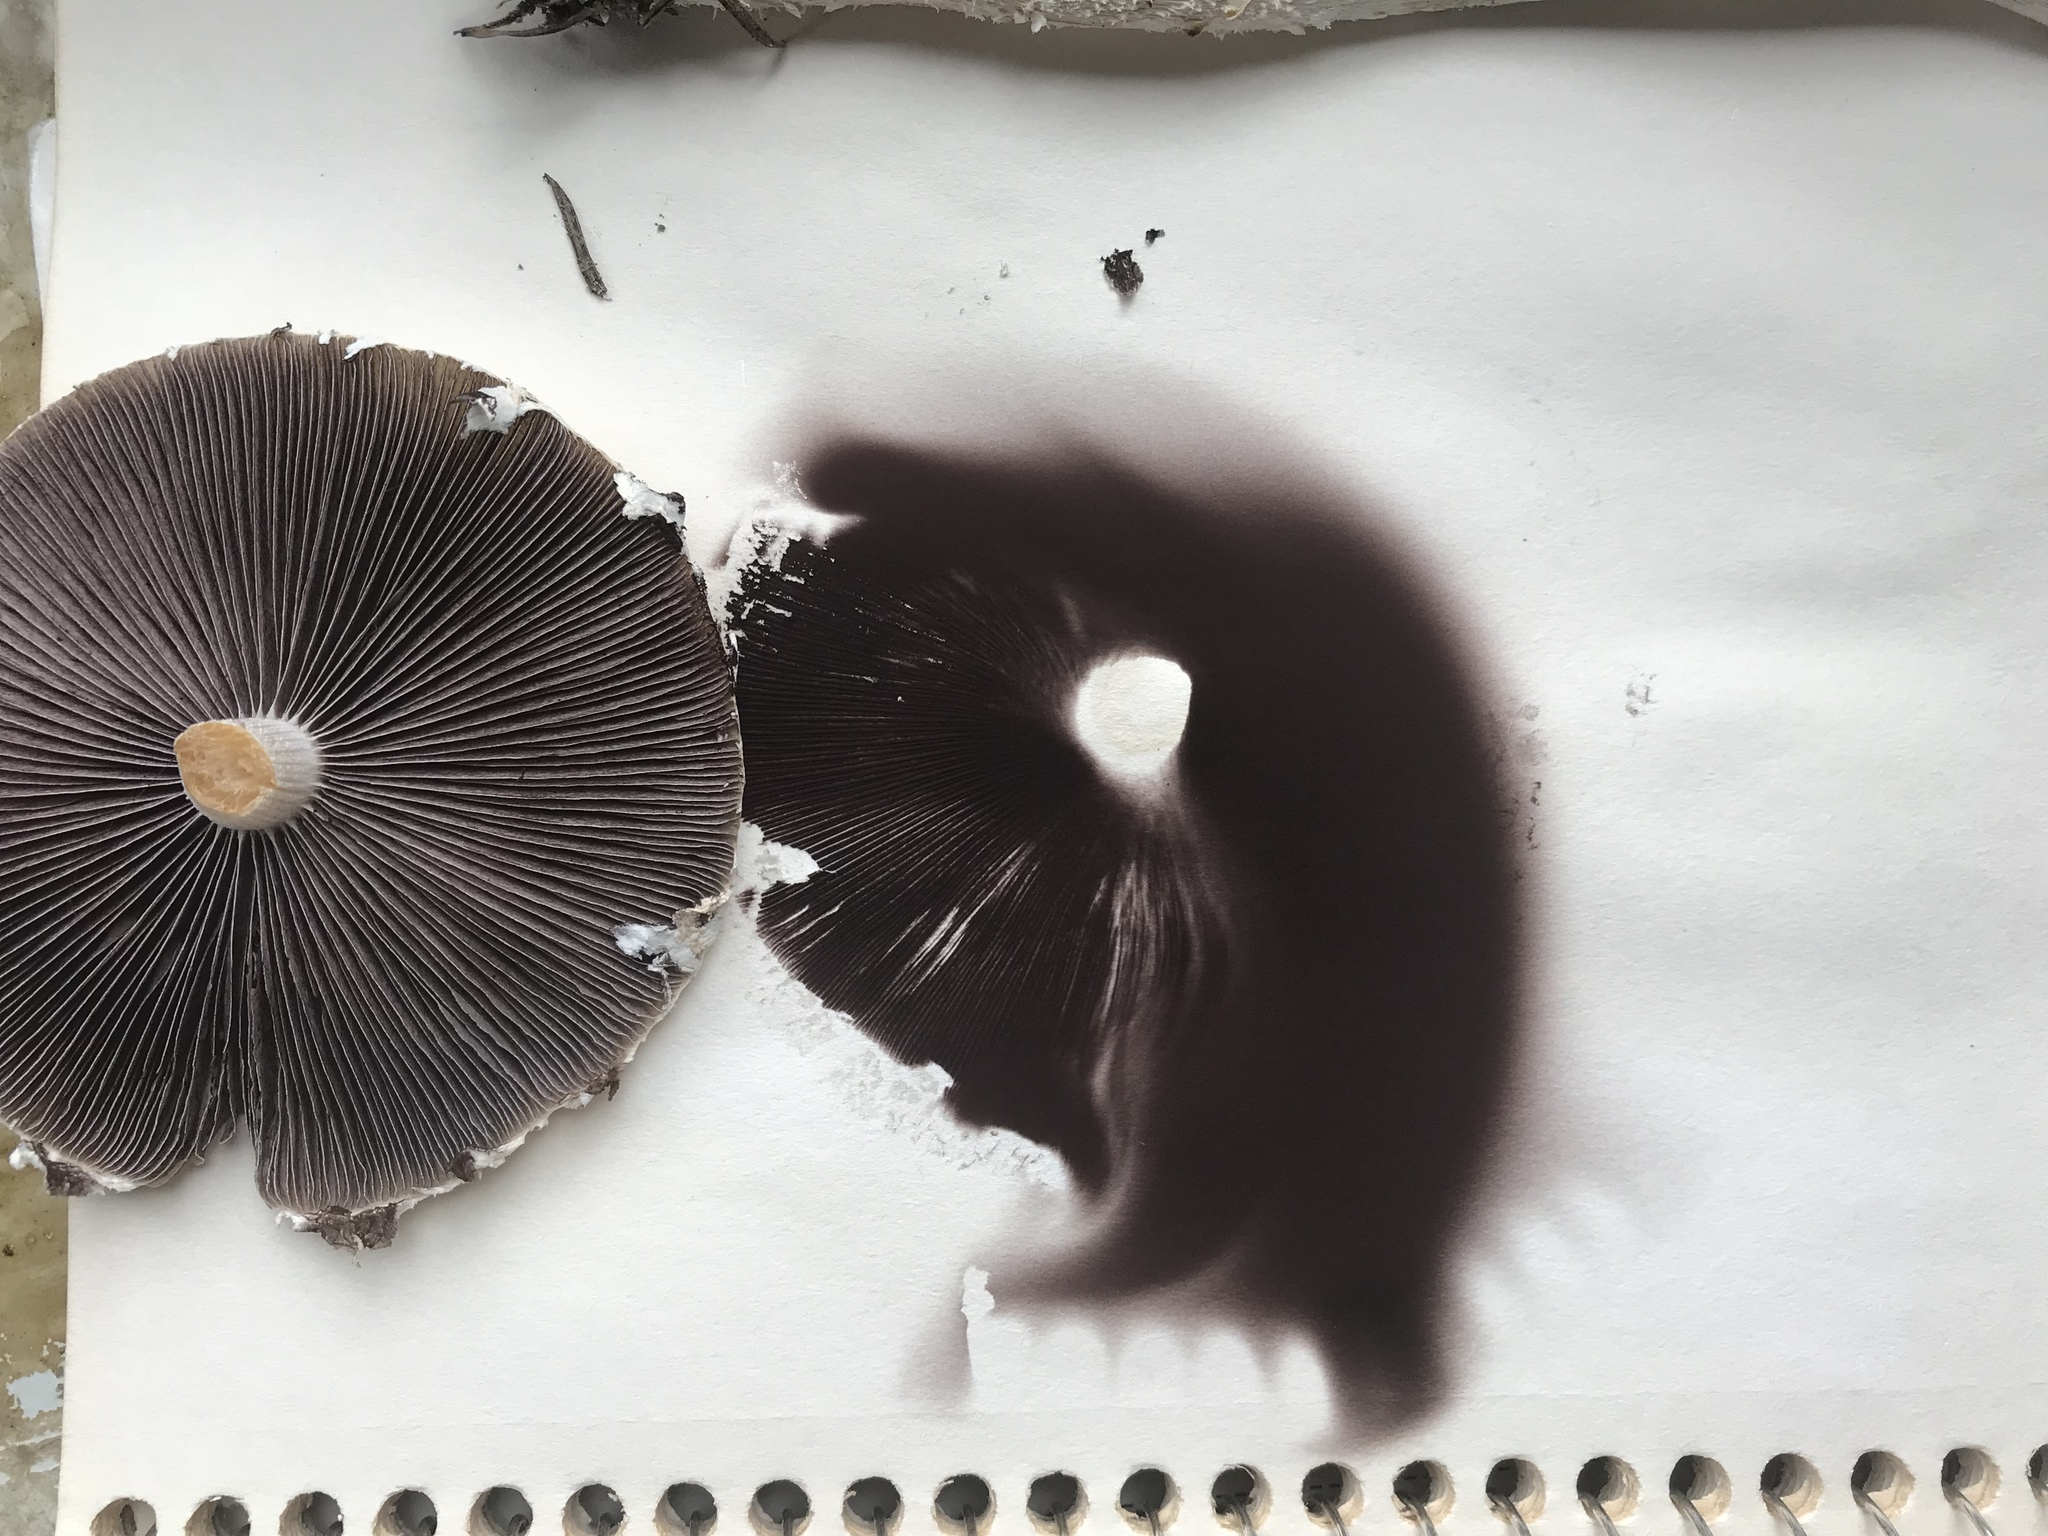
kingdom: Fungi
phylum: Basidiomycota
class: Agaricomycetes
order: Agaricales
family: Strophariaceae
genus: Stropharia
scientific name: Stropharia ambigua
